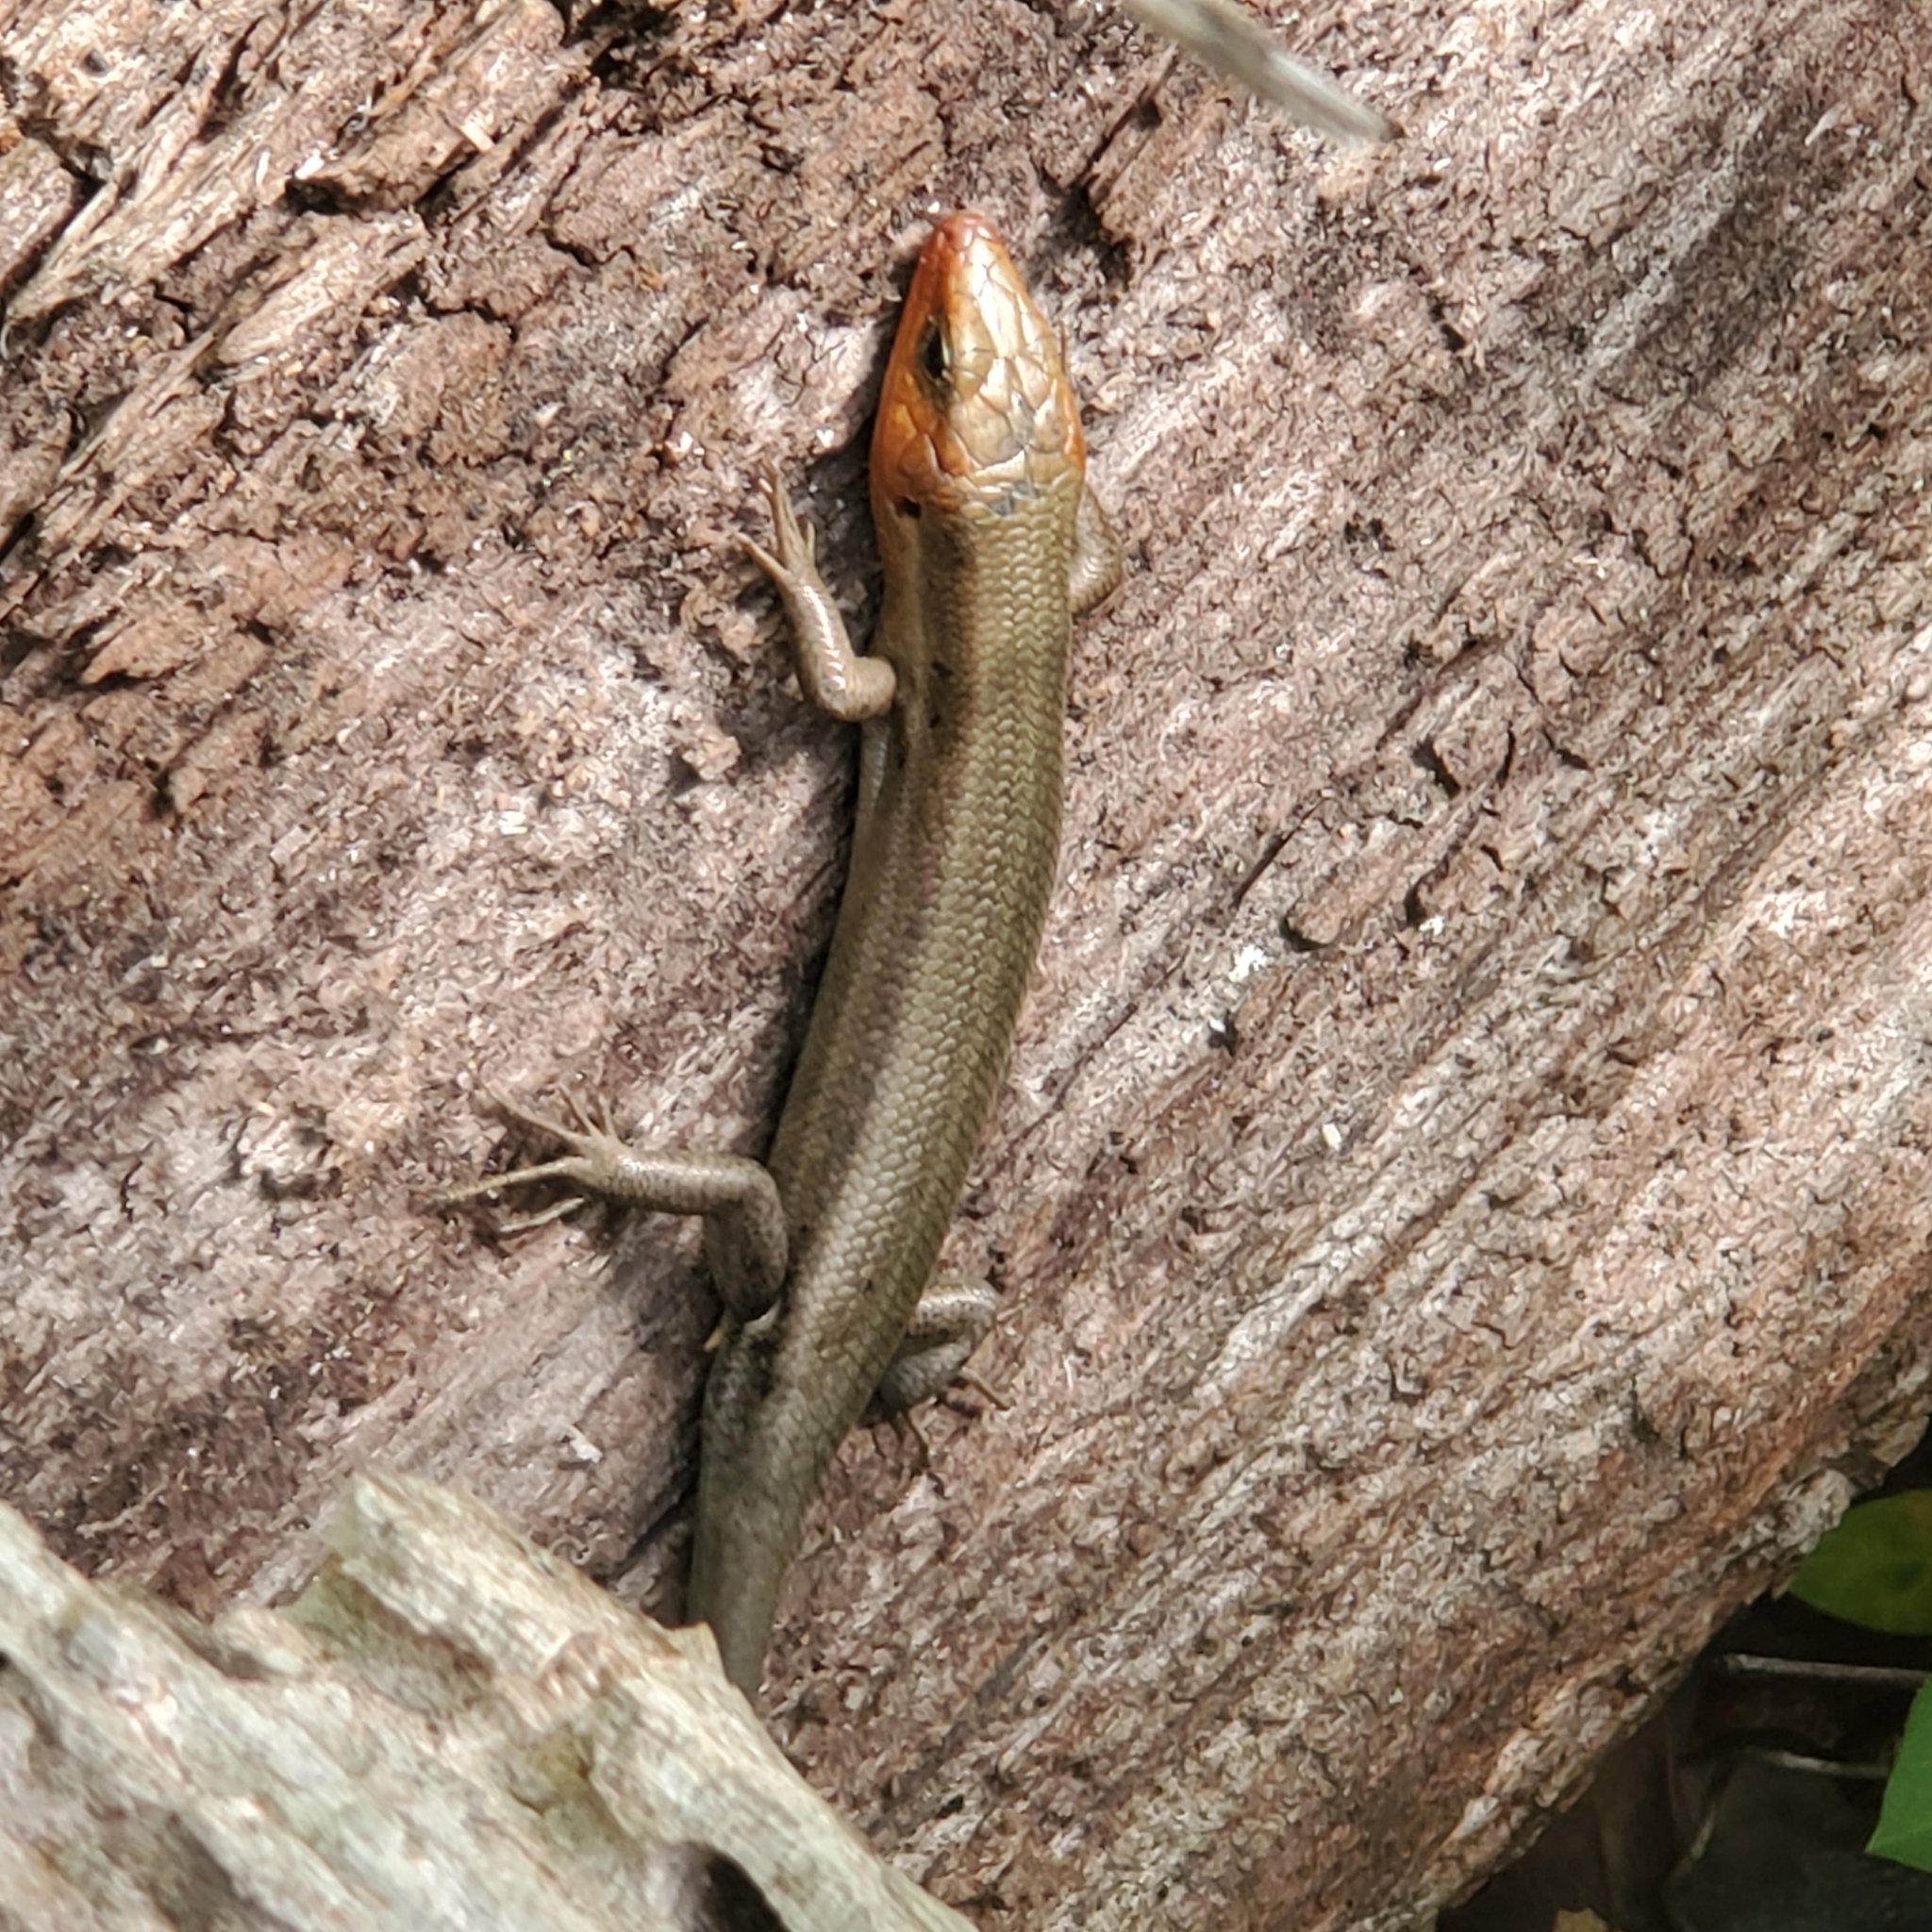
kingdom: Animalia
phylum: Chordata
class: Squamata
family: Scincidae
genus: Plestiodon
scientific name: Plestiodon fasciatus
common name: Five-lined skink
